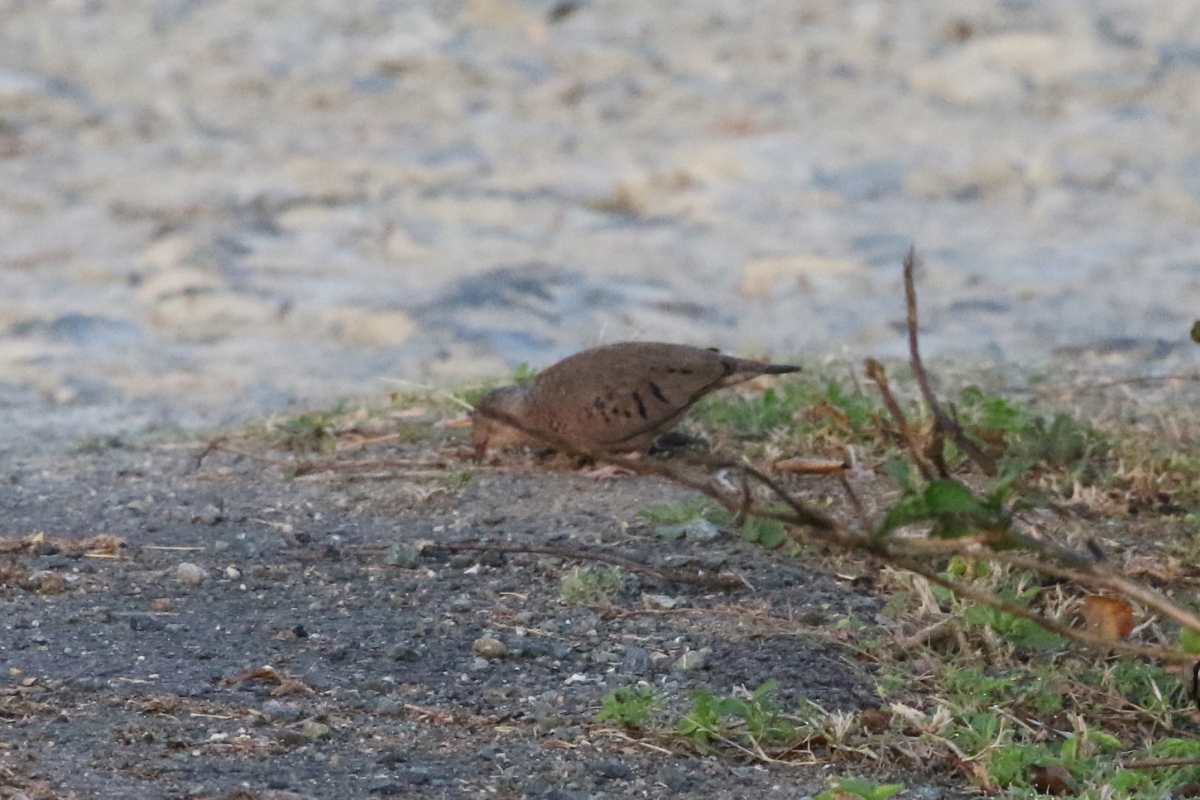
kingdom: Animalia
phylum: Chordata
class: Aves
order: Columbiformes
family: Columbidae
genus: Columbina
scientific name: Columbina passerina
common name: Common ground-dove
